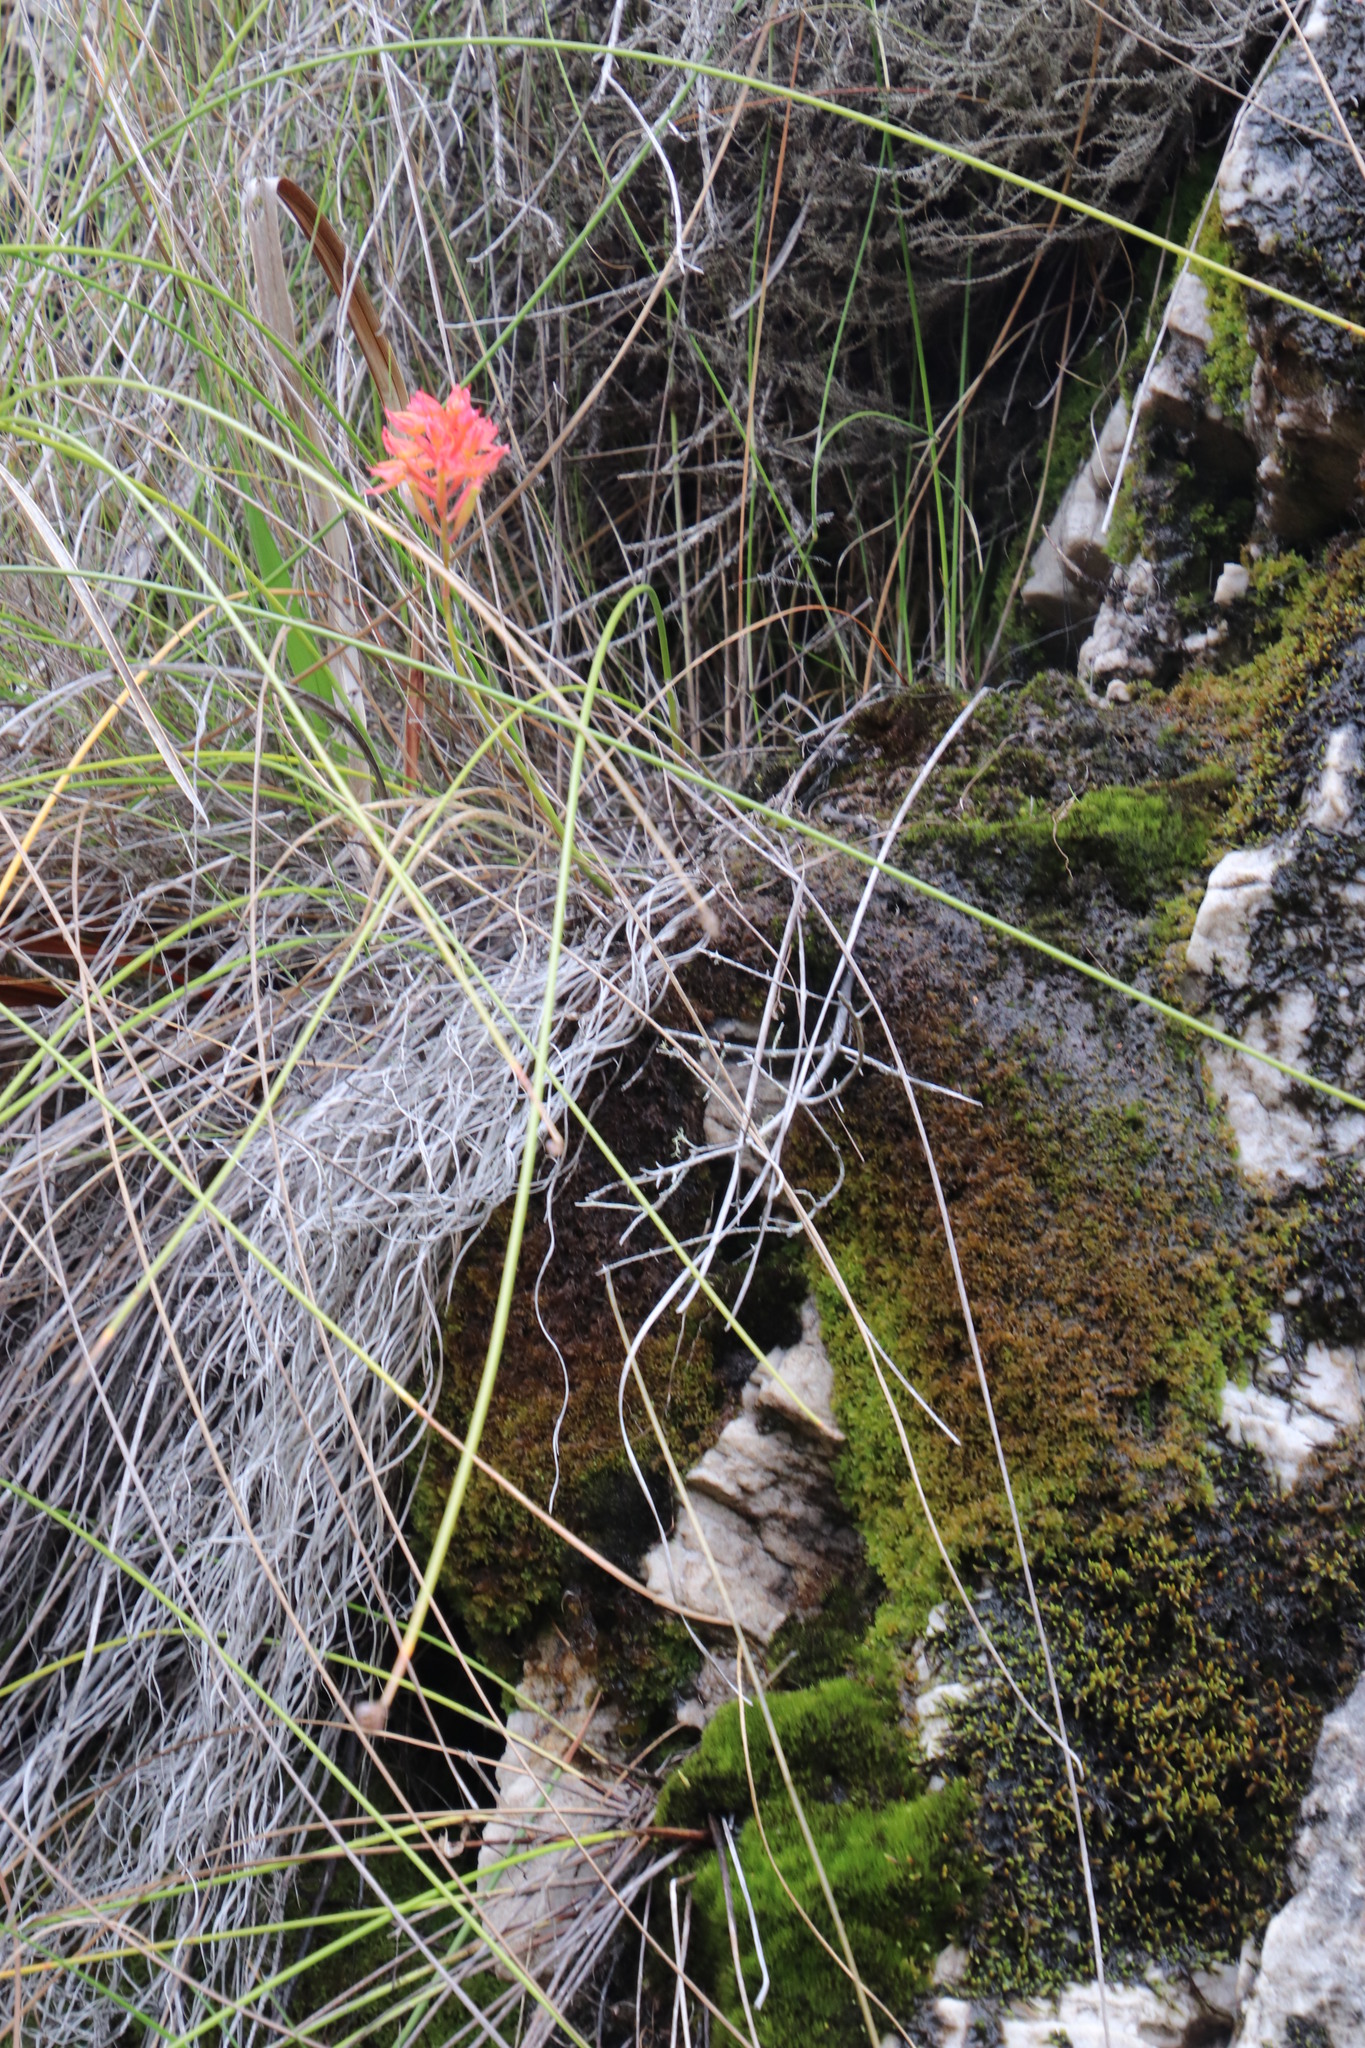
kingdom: Plantae
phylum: Tracheophyta
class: Liliopsida
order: Asparagales
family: Orchidaceae
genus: Disa
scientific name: Disa ferruginea
